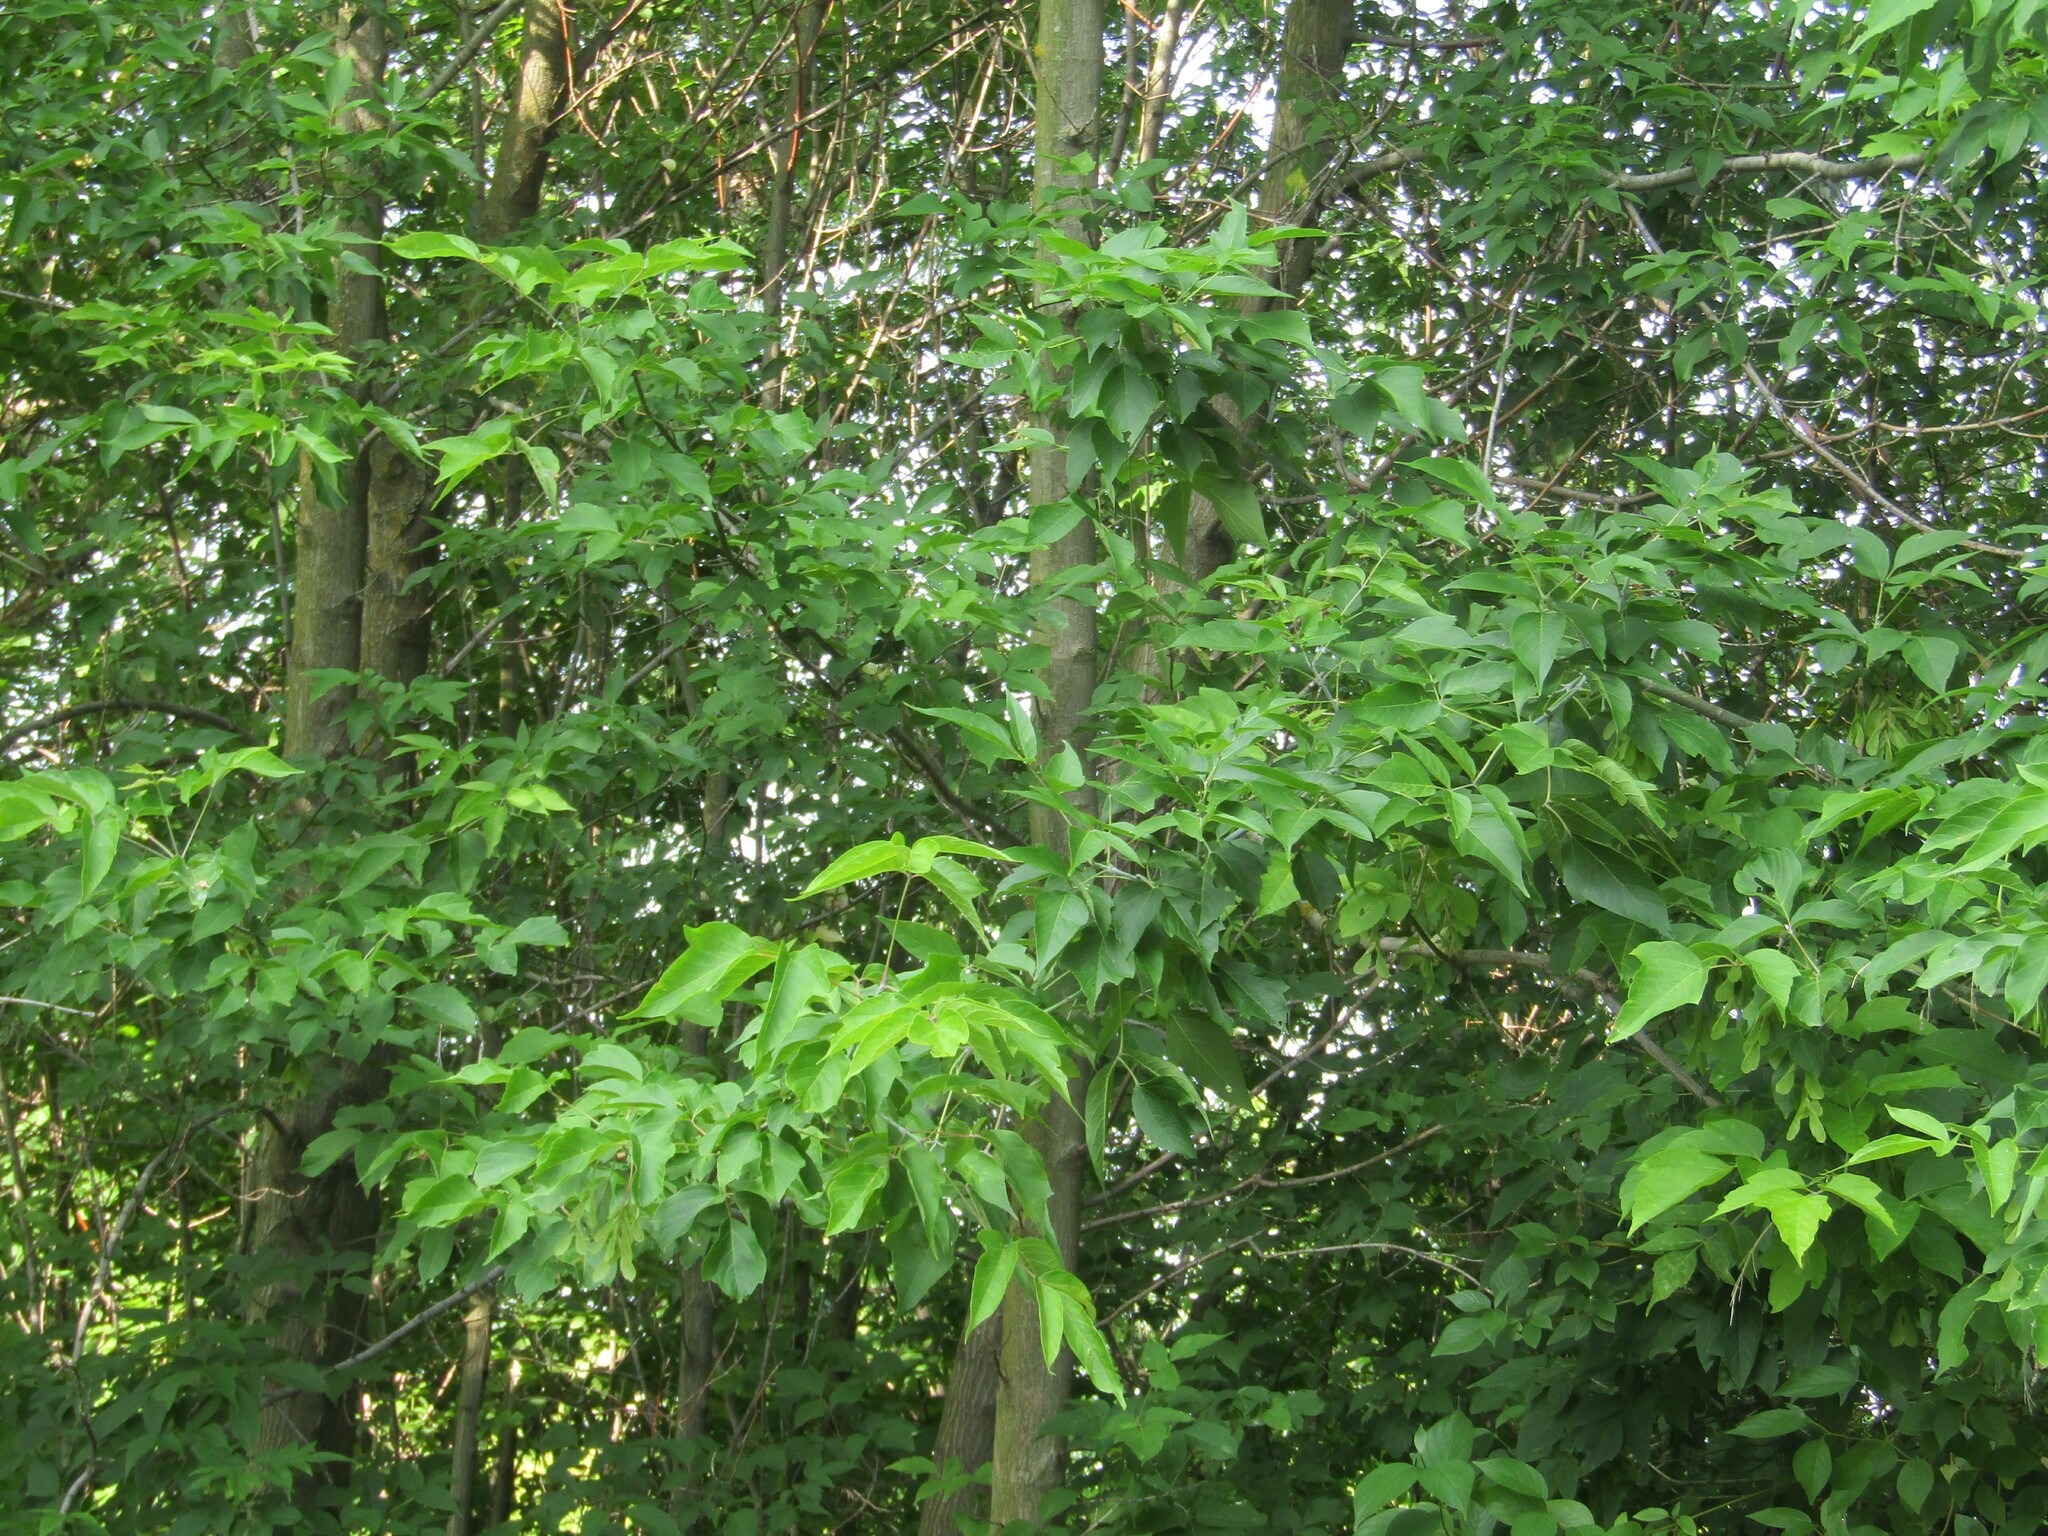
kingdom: Plantae
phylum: Tracheophyta
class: Magnoliopsida
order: Sapindales
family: Sapindaceae
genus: Acer
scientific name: Acer negundo
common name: Ashleaf maple
